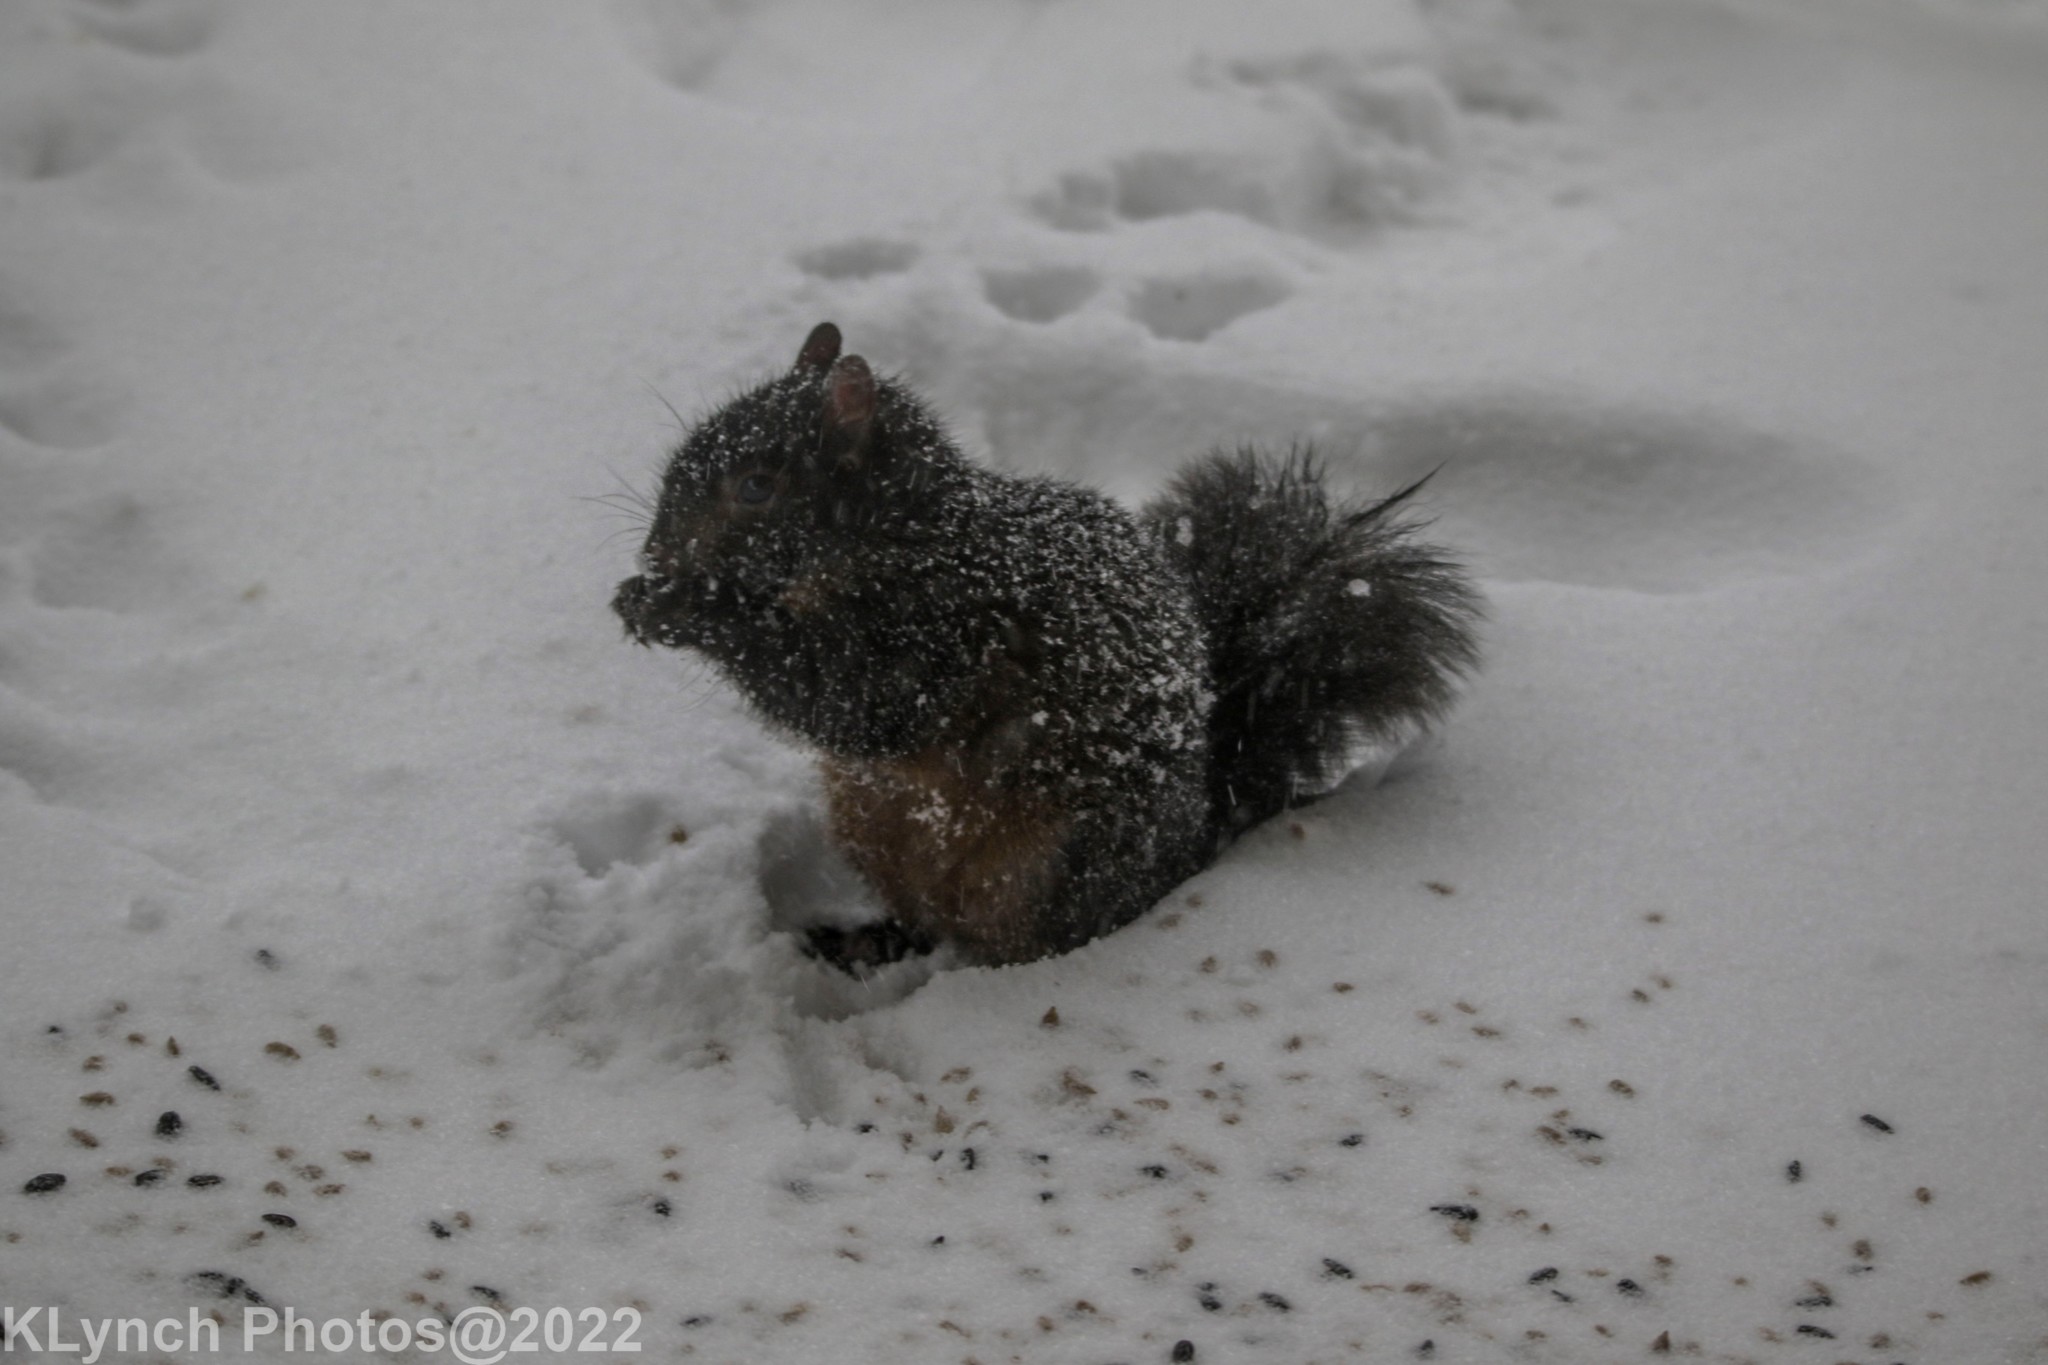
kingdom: Animalia
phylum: Chordata
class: Mammalia
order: Rodentia
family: Sciuridae
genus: Sciurus
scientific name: Sciurus carolinensis
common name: Eastern gray squirrel
